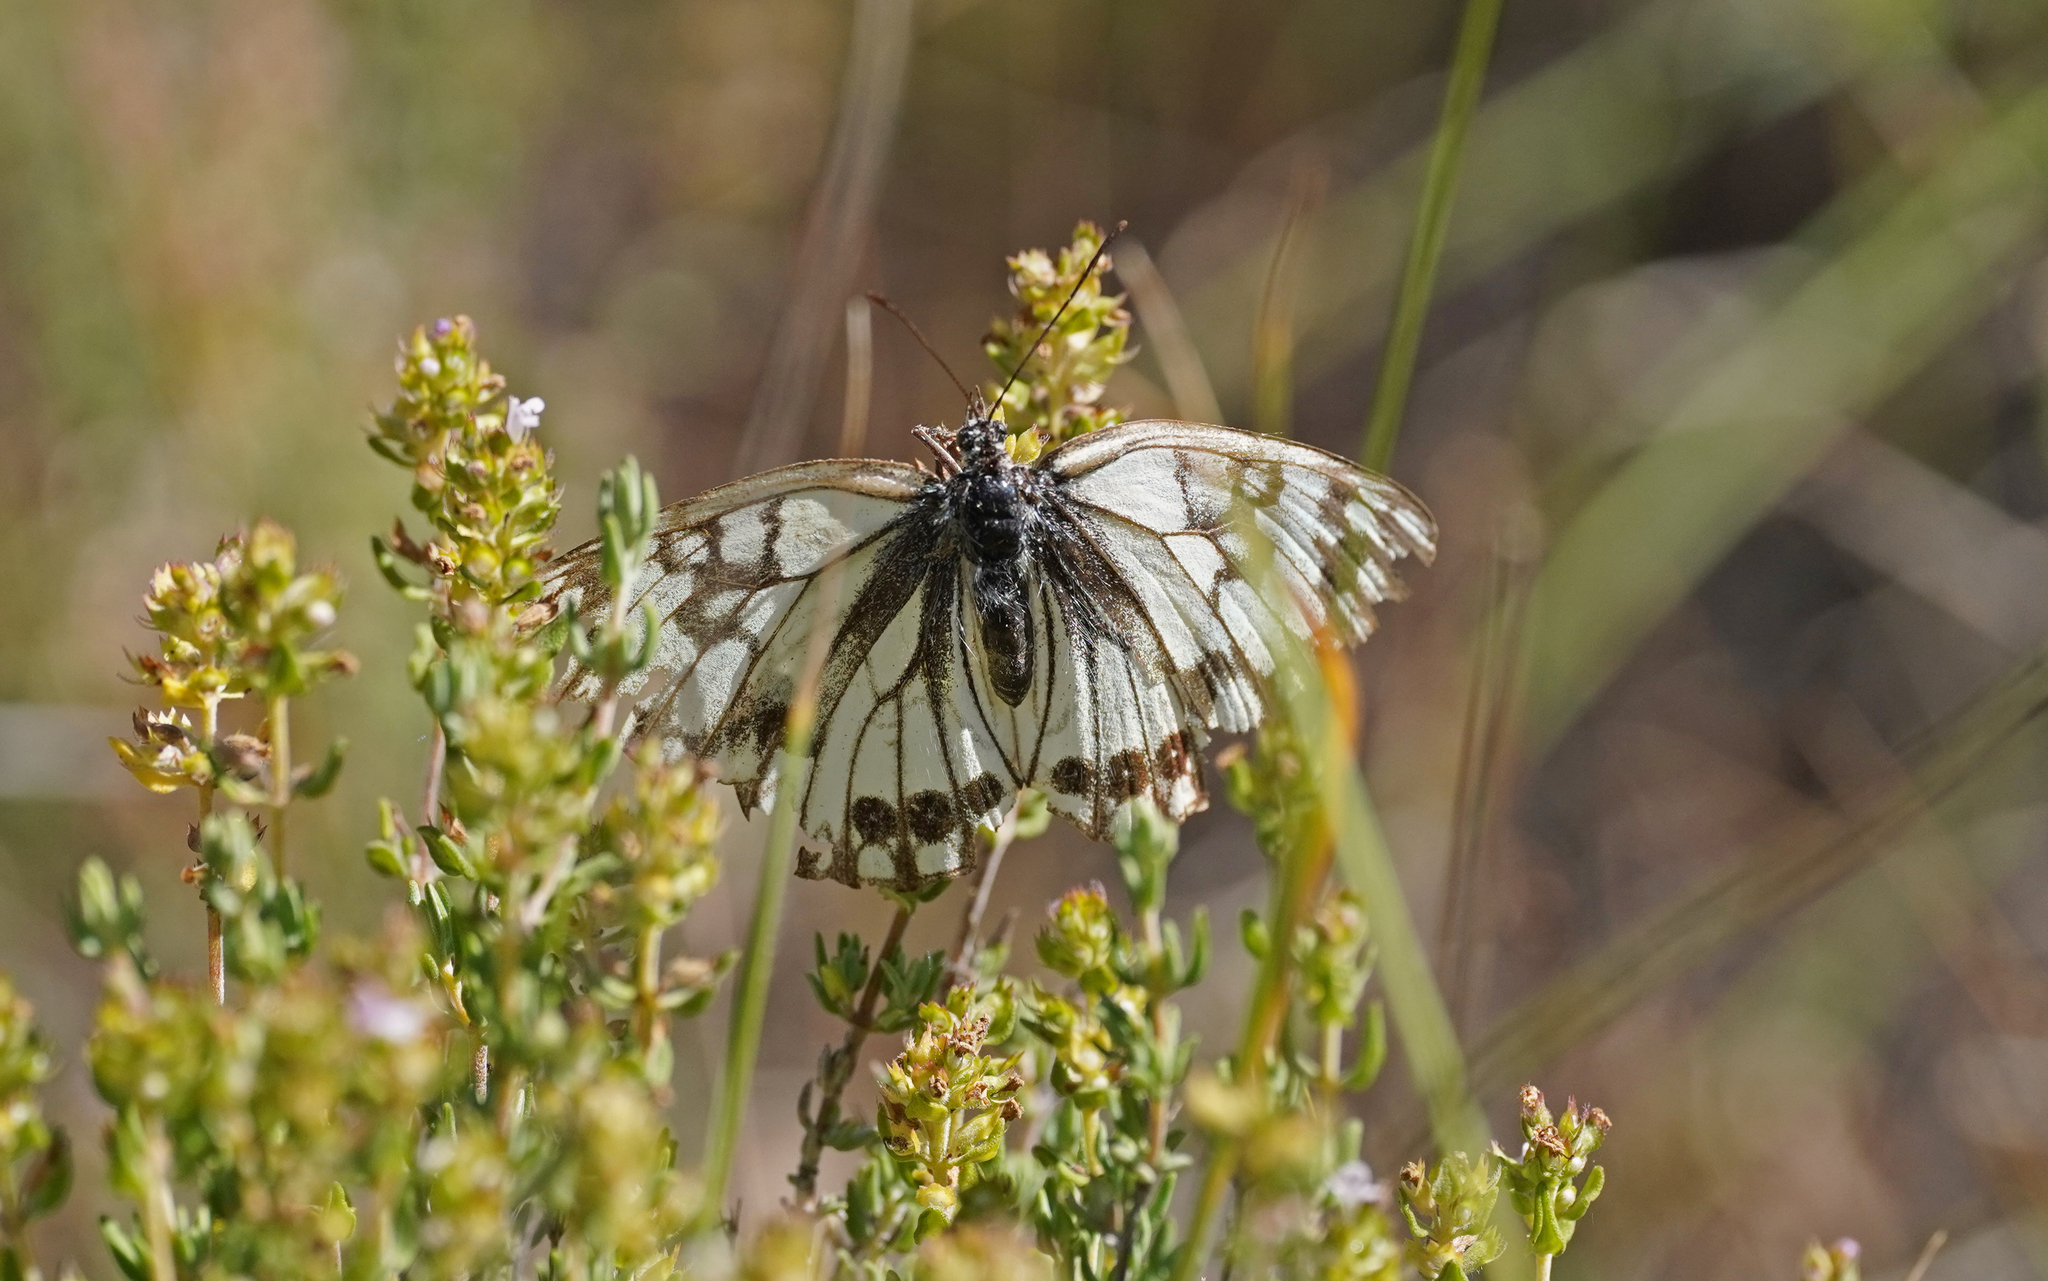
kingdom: Animalia
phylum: Arthropoda
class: Insecta
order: Lepidoptera
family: Nymphalidae
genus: Melanargia
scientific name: Melanargia occitanica
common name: Western marbled white
